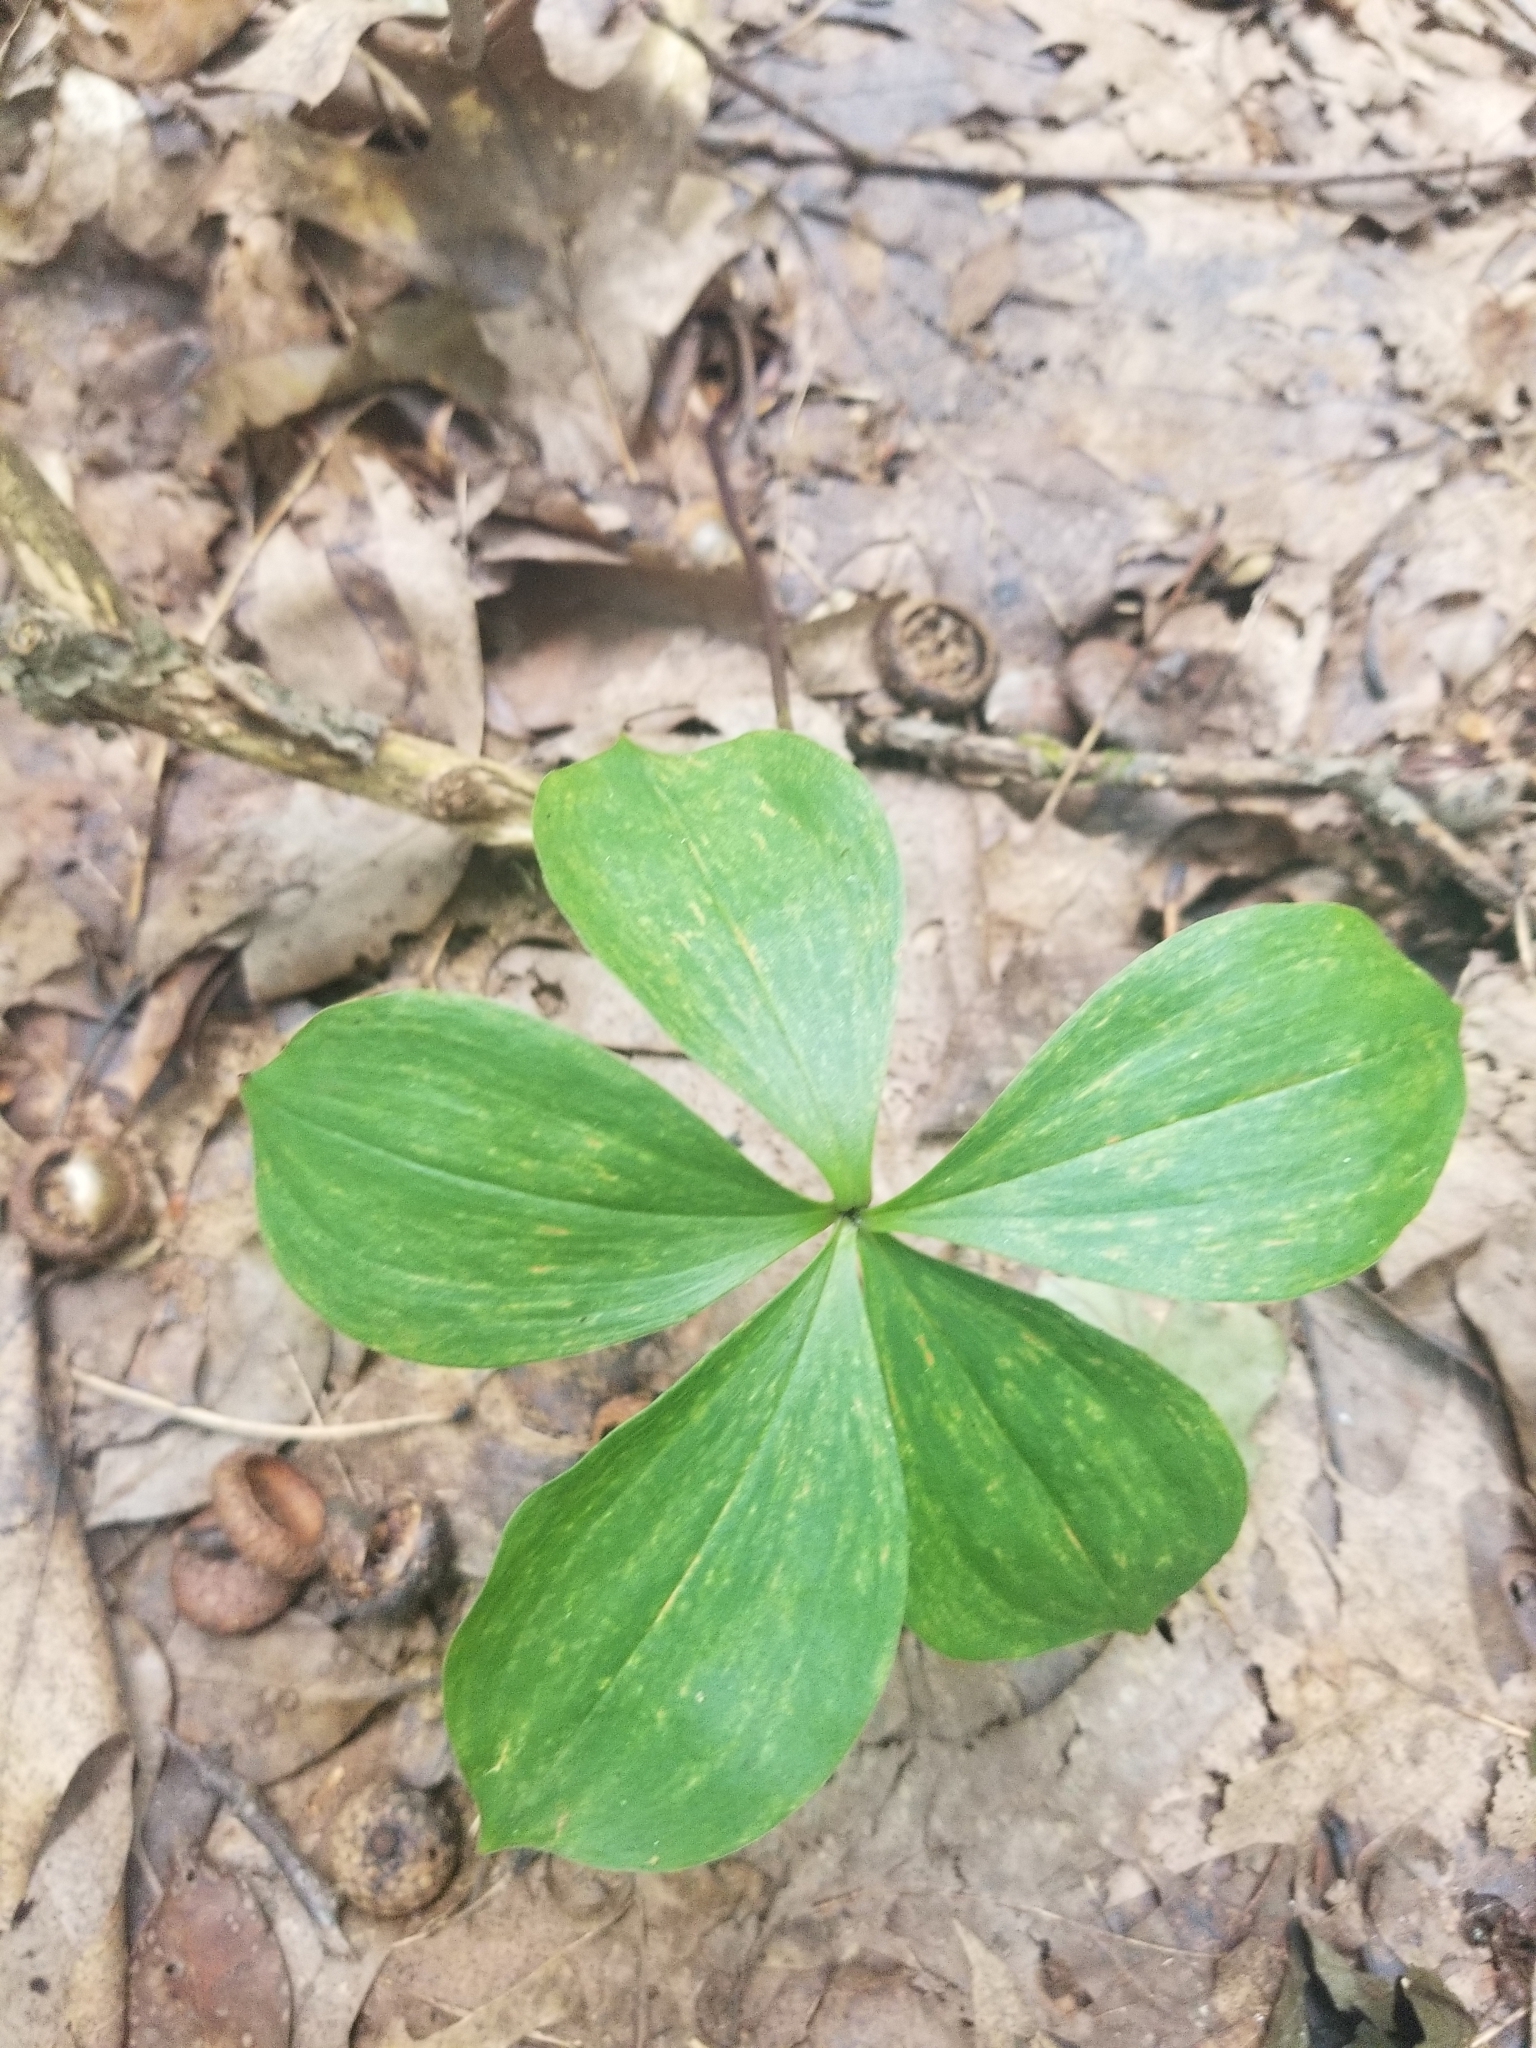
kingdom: Plantae
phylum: Tracheophyta
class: Liliopsida
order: Liliales
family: Liliaceae
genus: Medeola
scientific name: Medeola virginiana
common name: Indian cucumber-root
